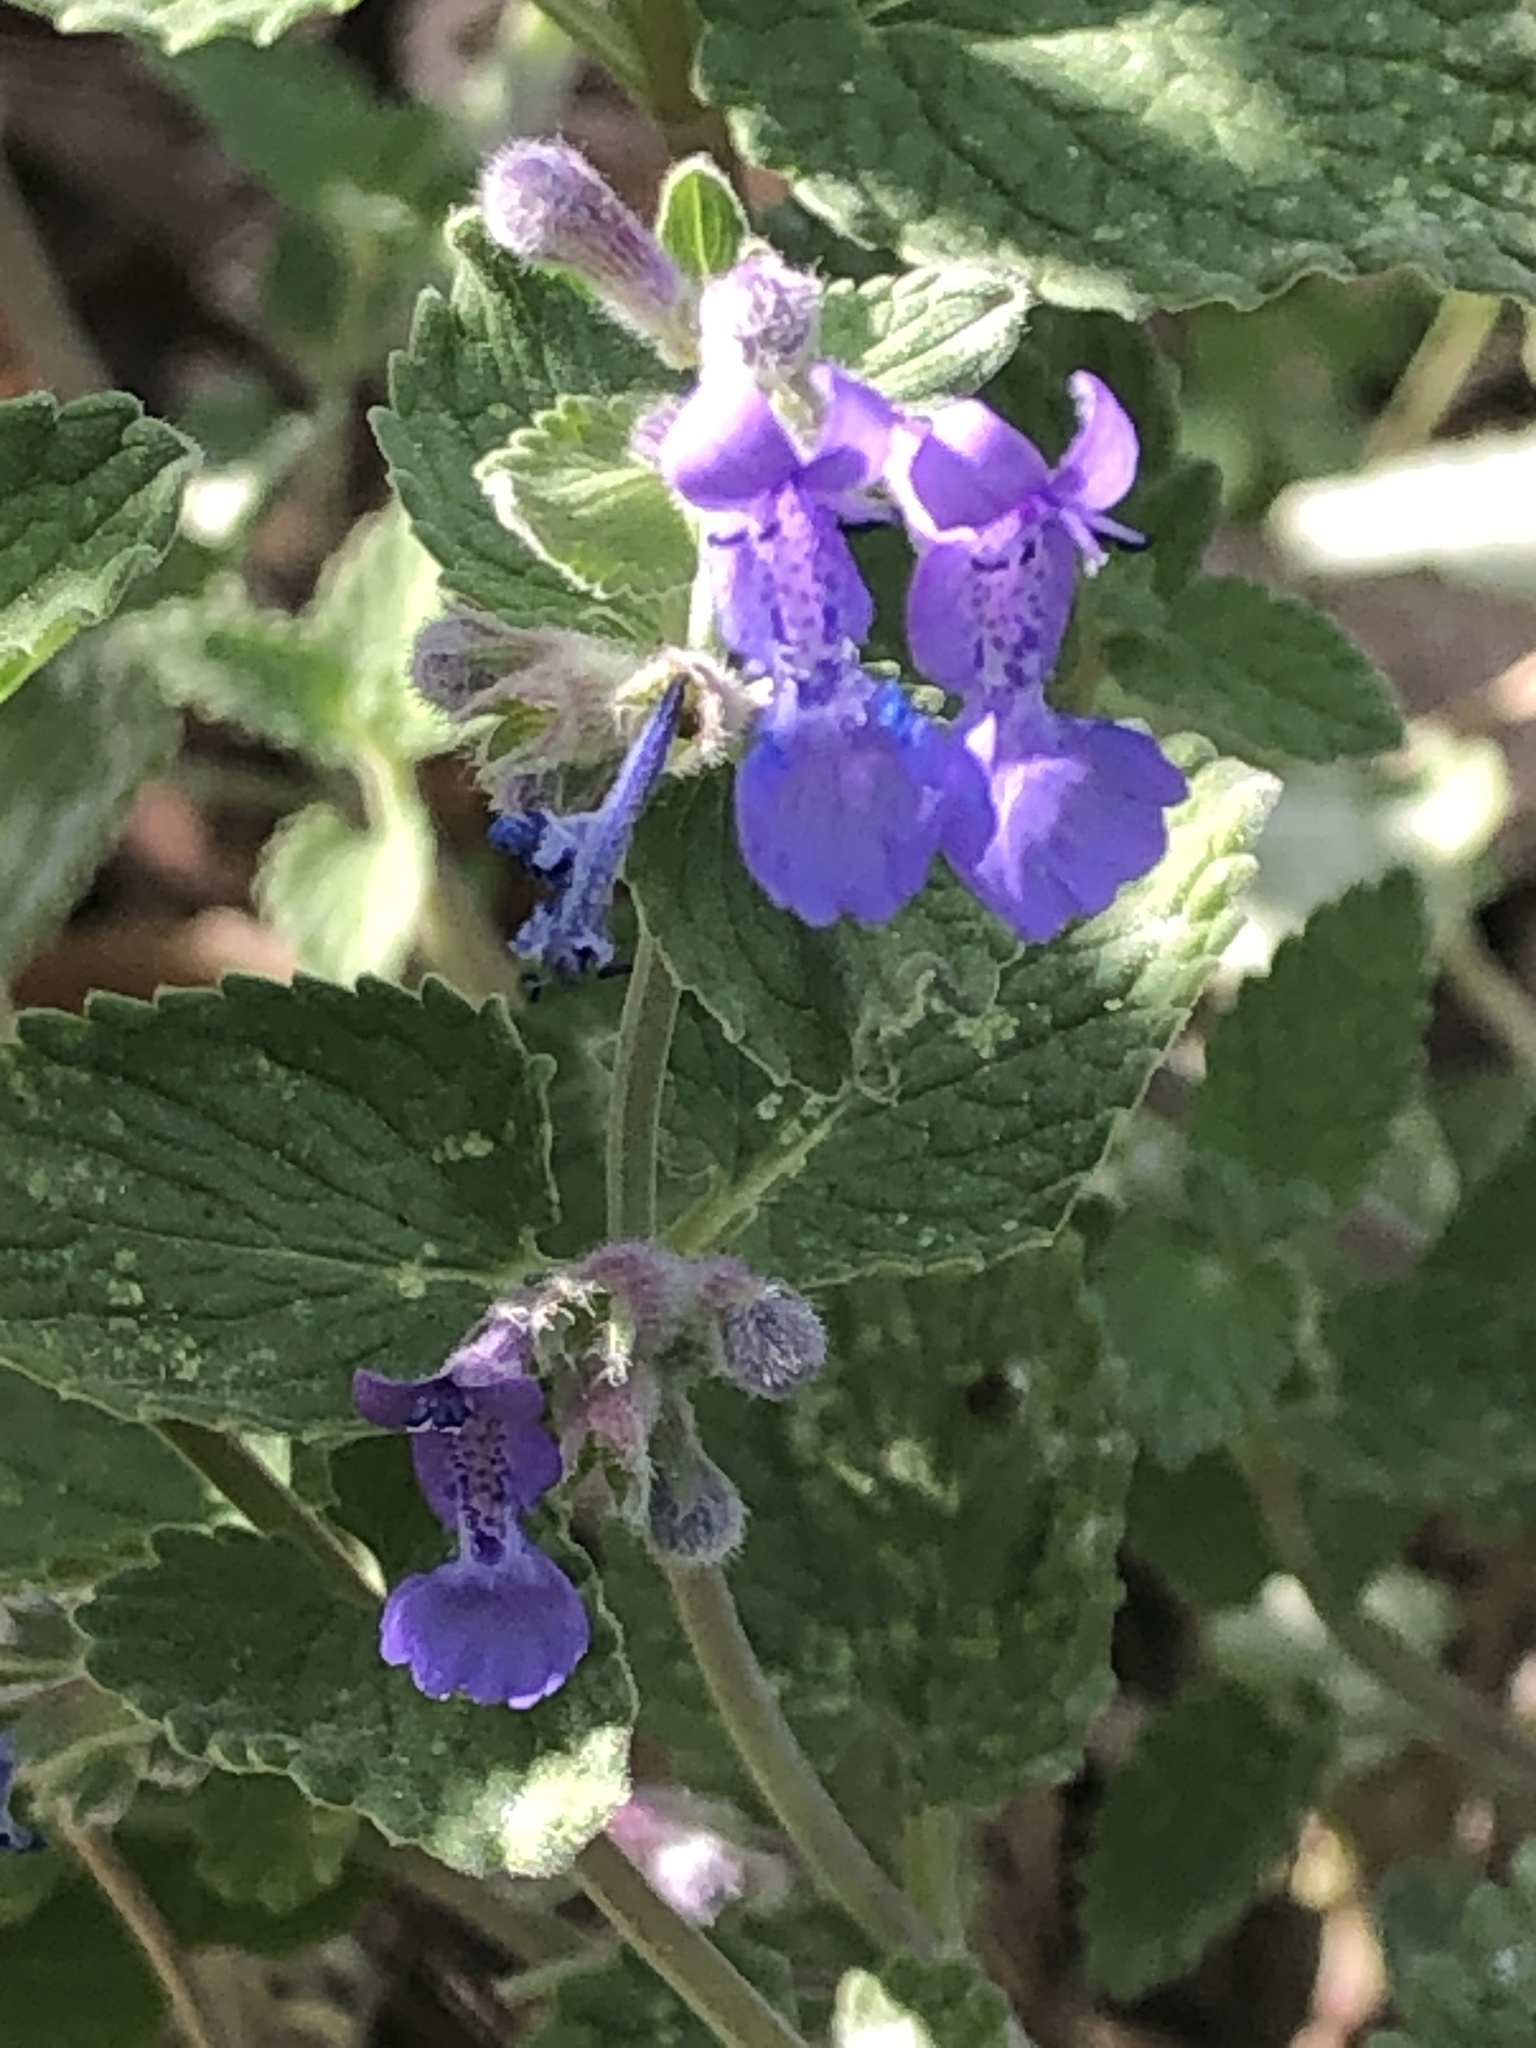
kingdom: Plantae
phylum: Tracheophyta
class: Magnoliopsida
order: Lamiales
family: Lamiaceae
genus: Nepeta
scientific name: Nepeta racemosa
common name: Raceme catnip
